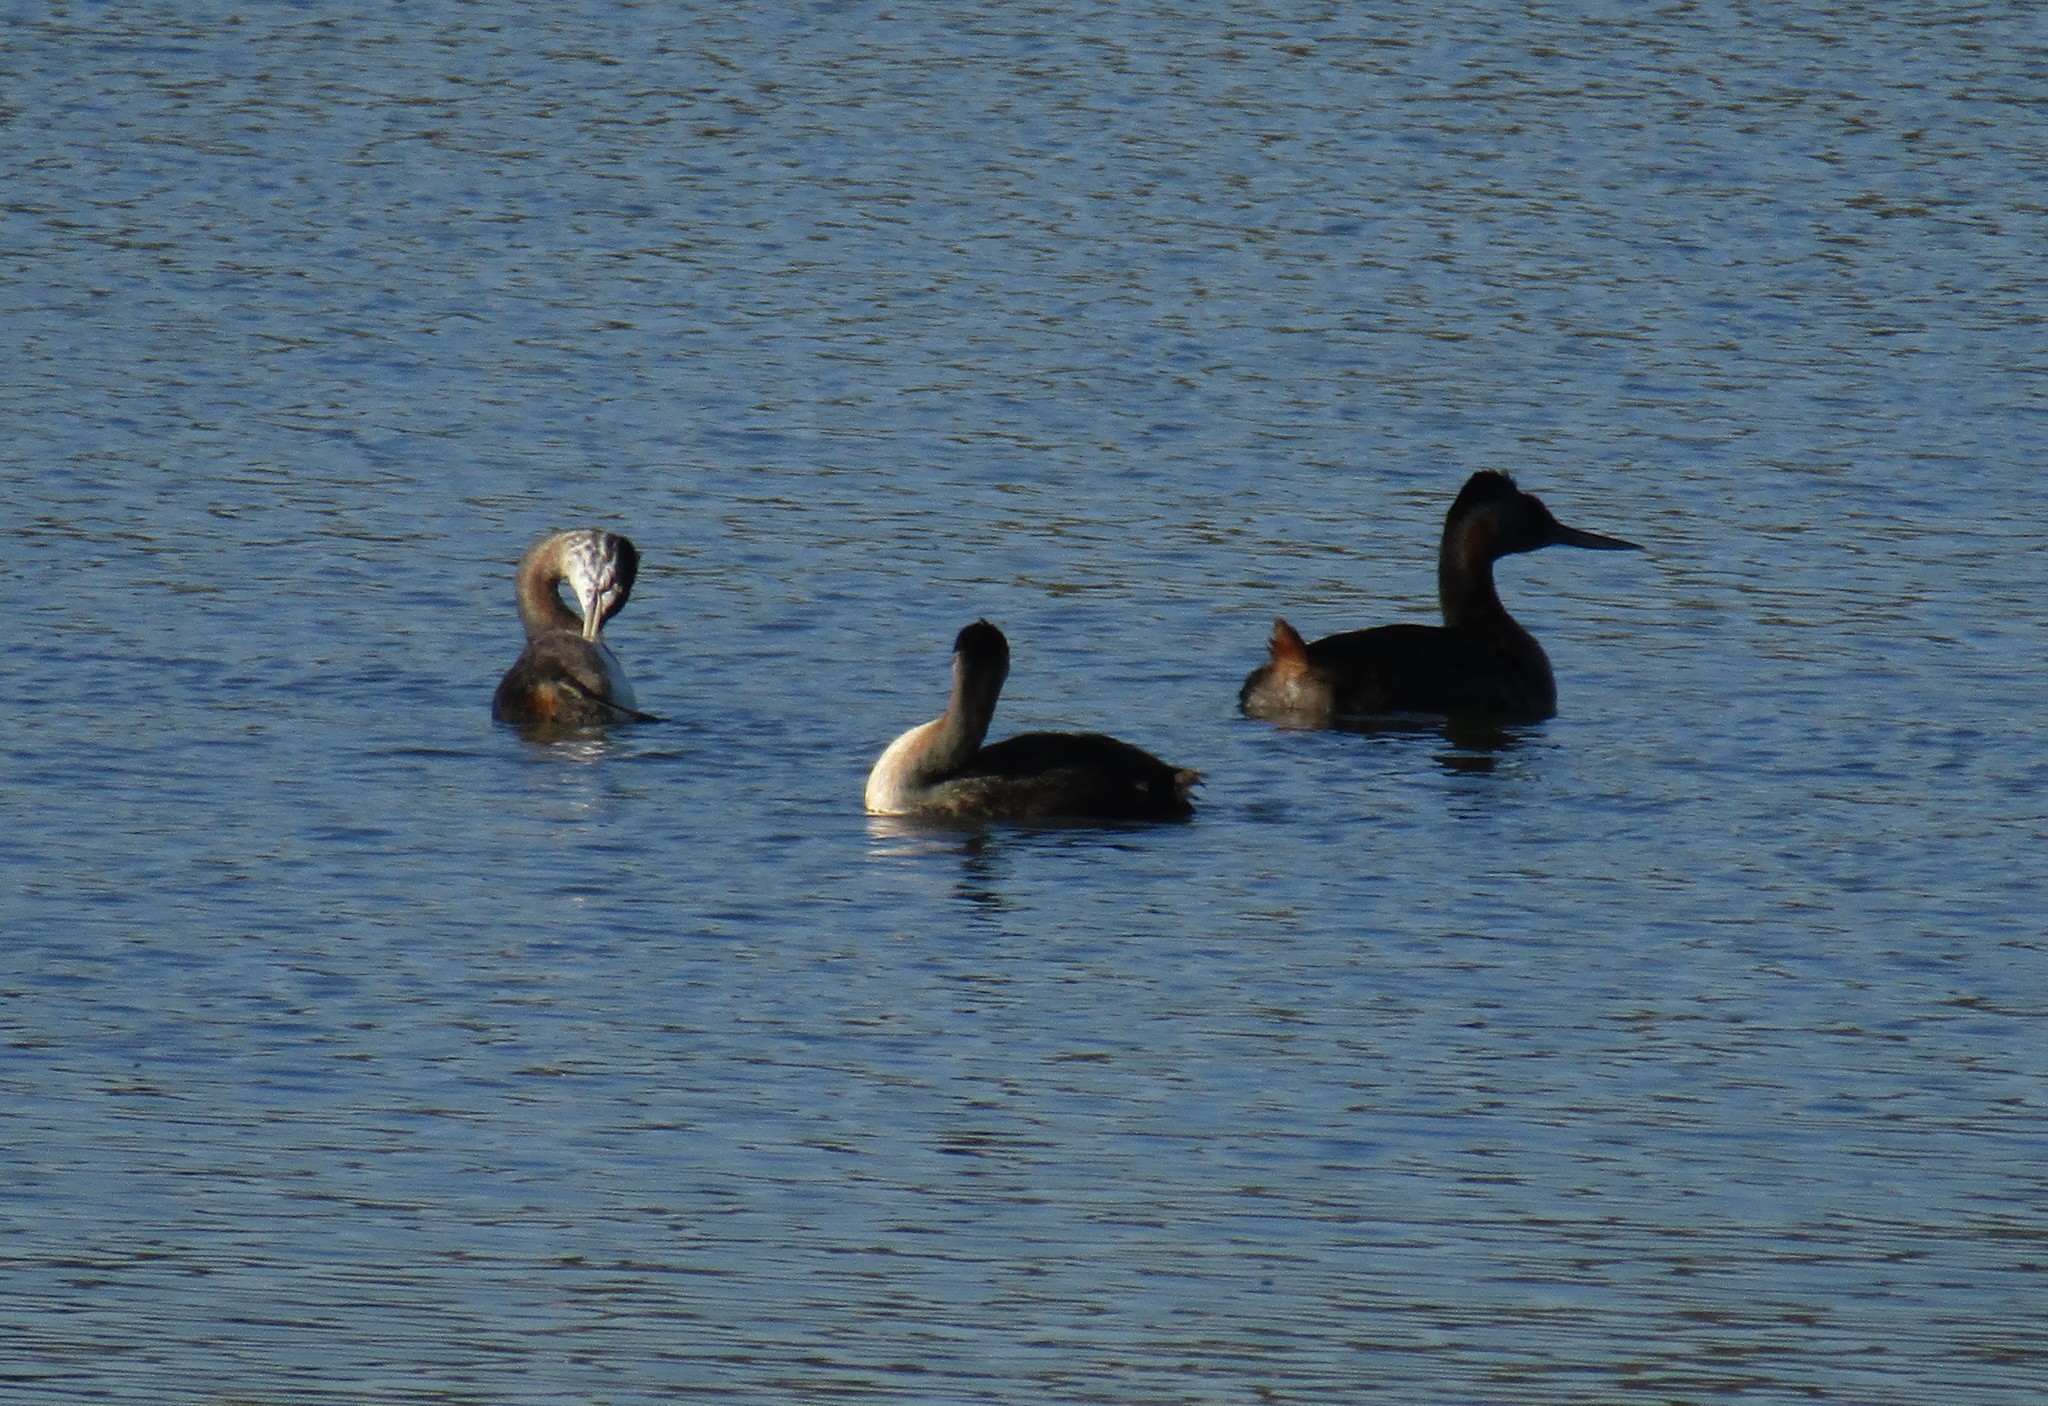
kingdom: Animalia
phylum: Chordata
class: Aves
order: Podicipediformes
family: Podicipedidae
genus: Podiceps
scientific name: Podiceps major
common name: Great grebe
